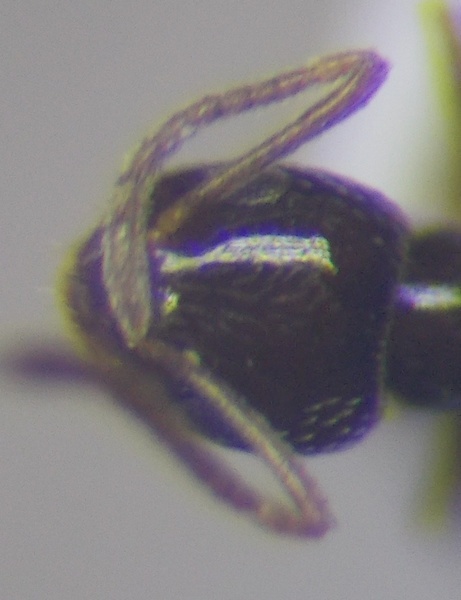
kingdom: Animalia
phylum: Arthropoda
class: Insecta
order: Hymenoptera
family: Formicidae
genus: Plagiolepis
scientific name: Plagiolepis pallescens
